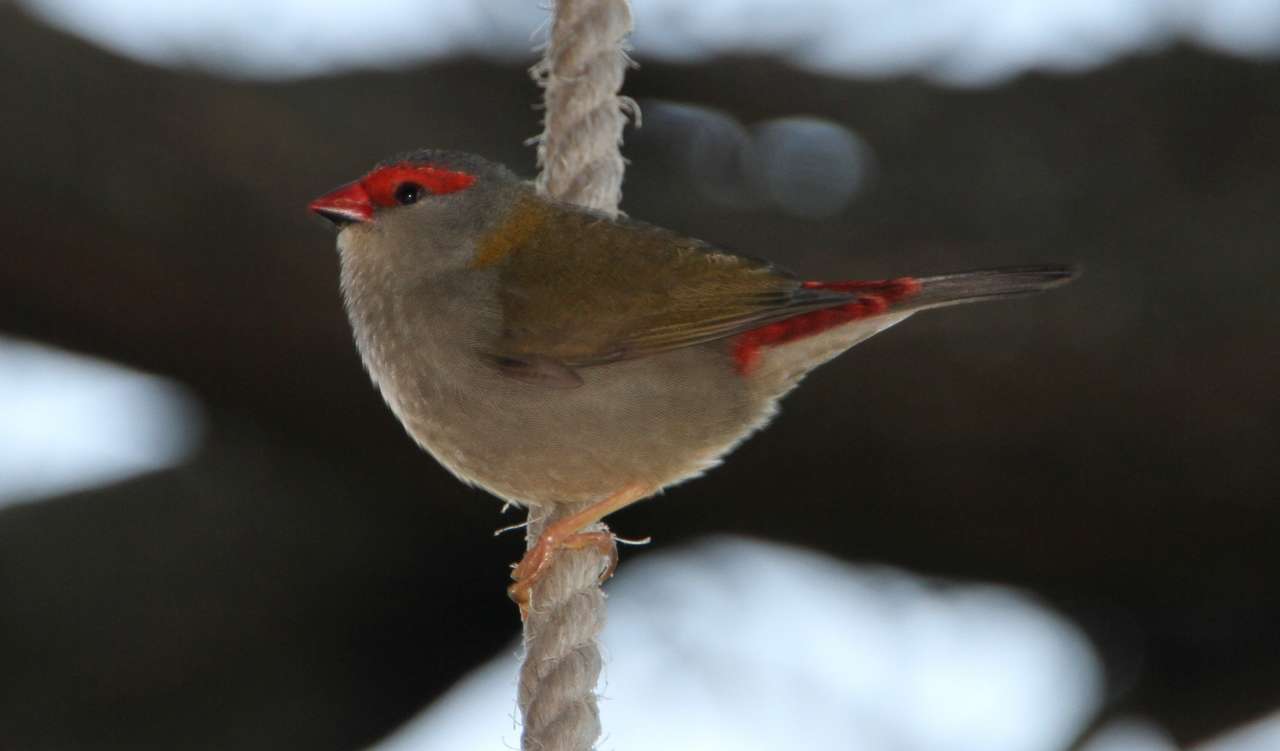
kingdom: Animalia
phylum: Chordata
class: Aves
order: Passeriformes
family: Estrildidae
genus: Neochmia
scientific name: Neochmia temporalis
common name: Red-browed finch
